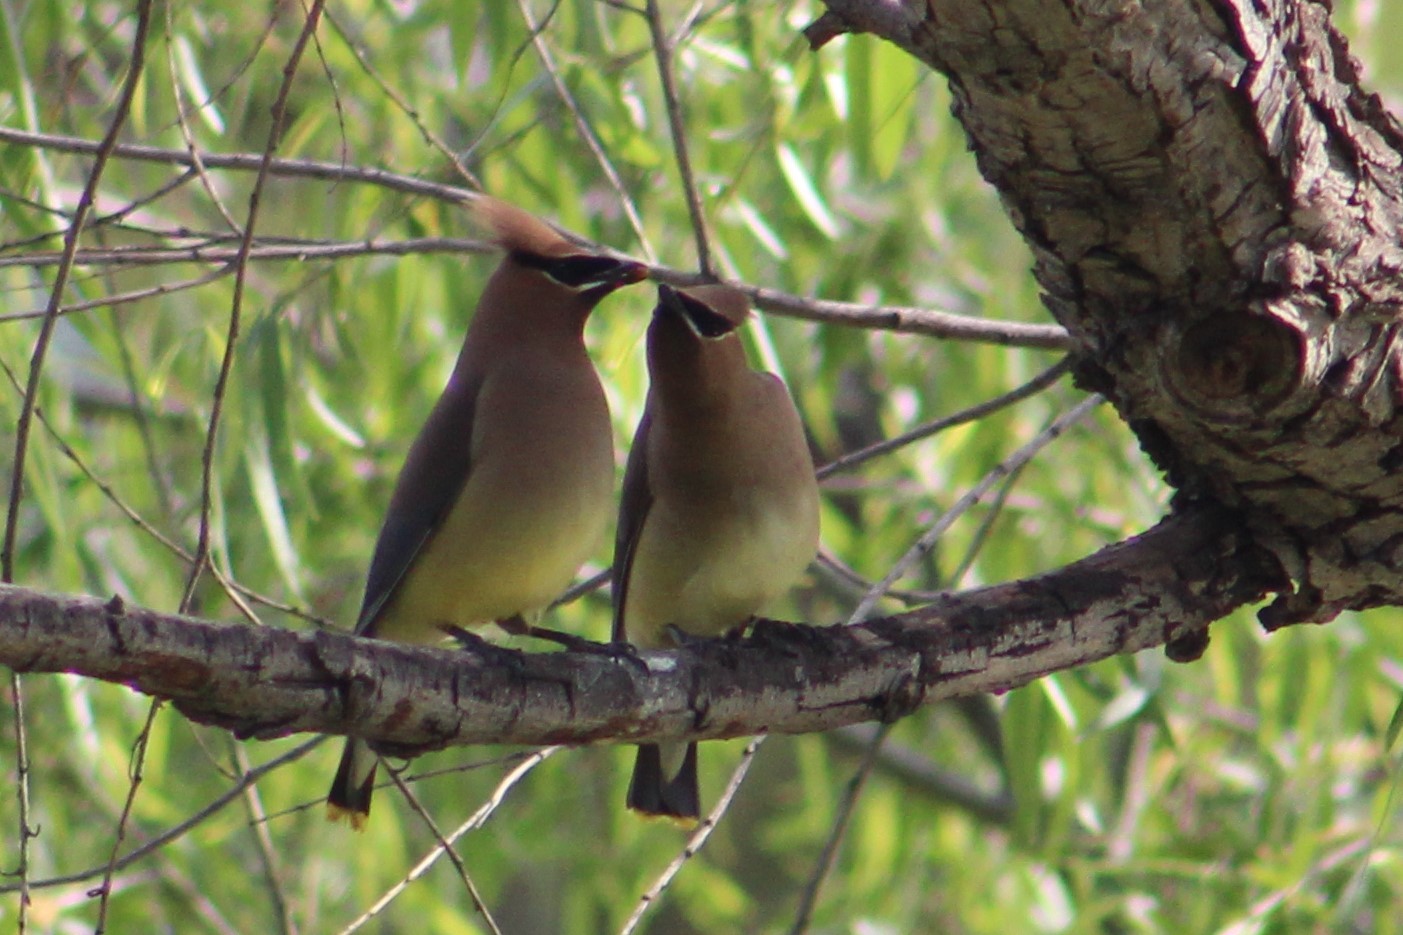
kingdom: Animalia
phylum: Chordata
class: Aves
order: Passeriformes
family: Bombycillidae
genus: Bombycilla
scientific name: Bombycilla cedrorum
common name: Cedar waxwing
